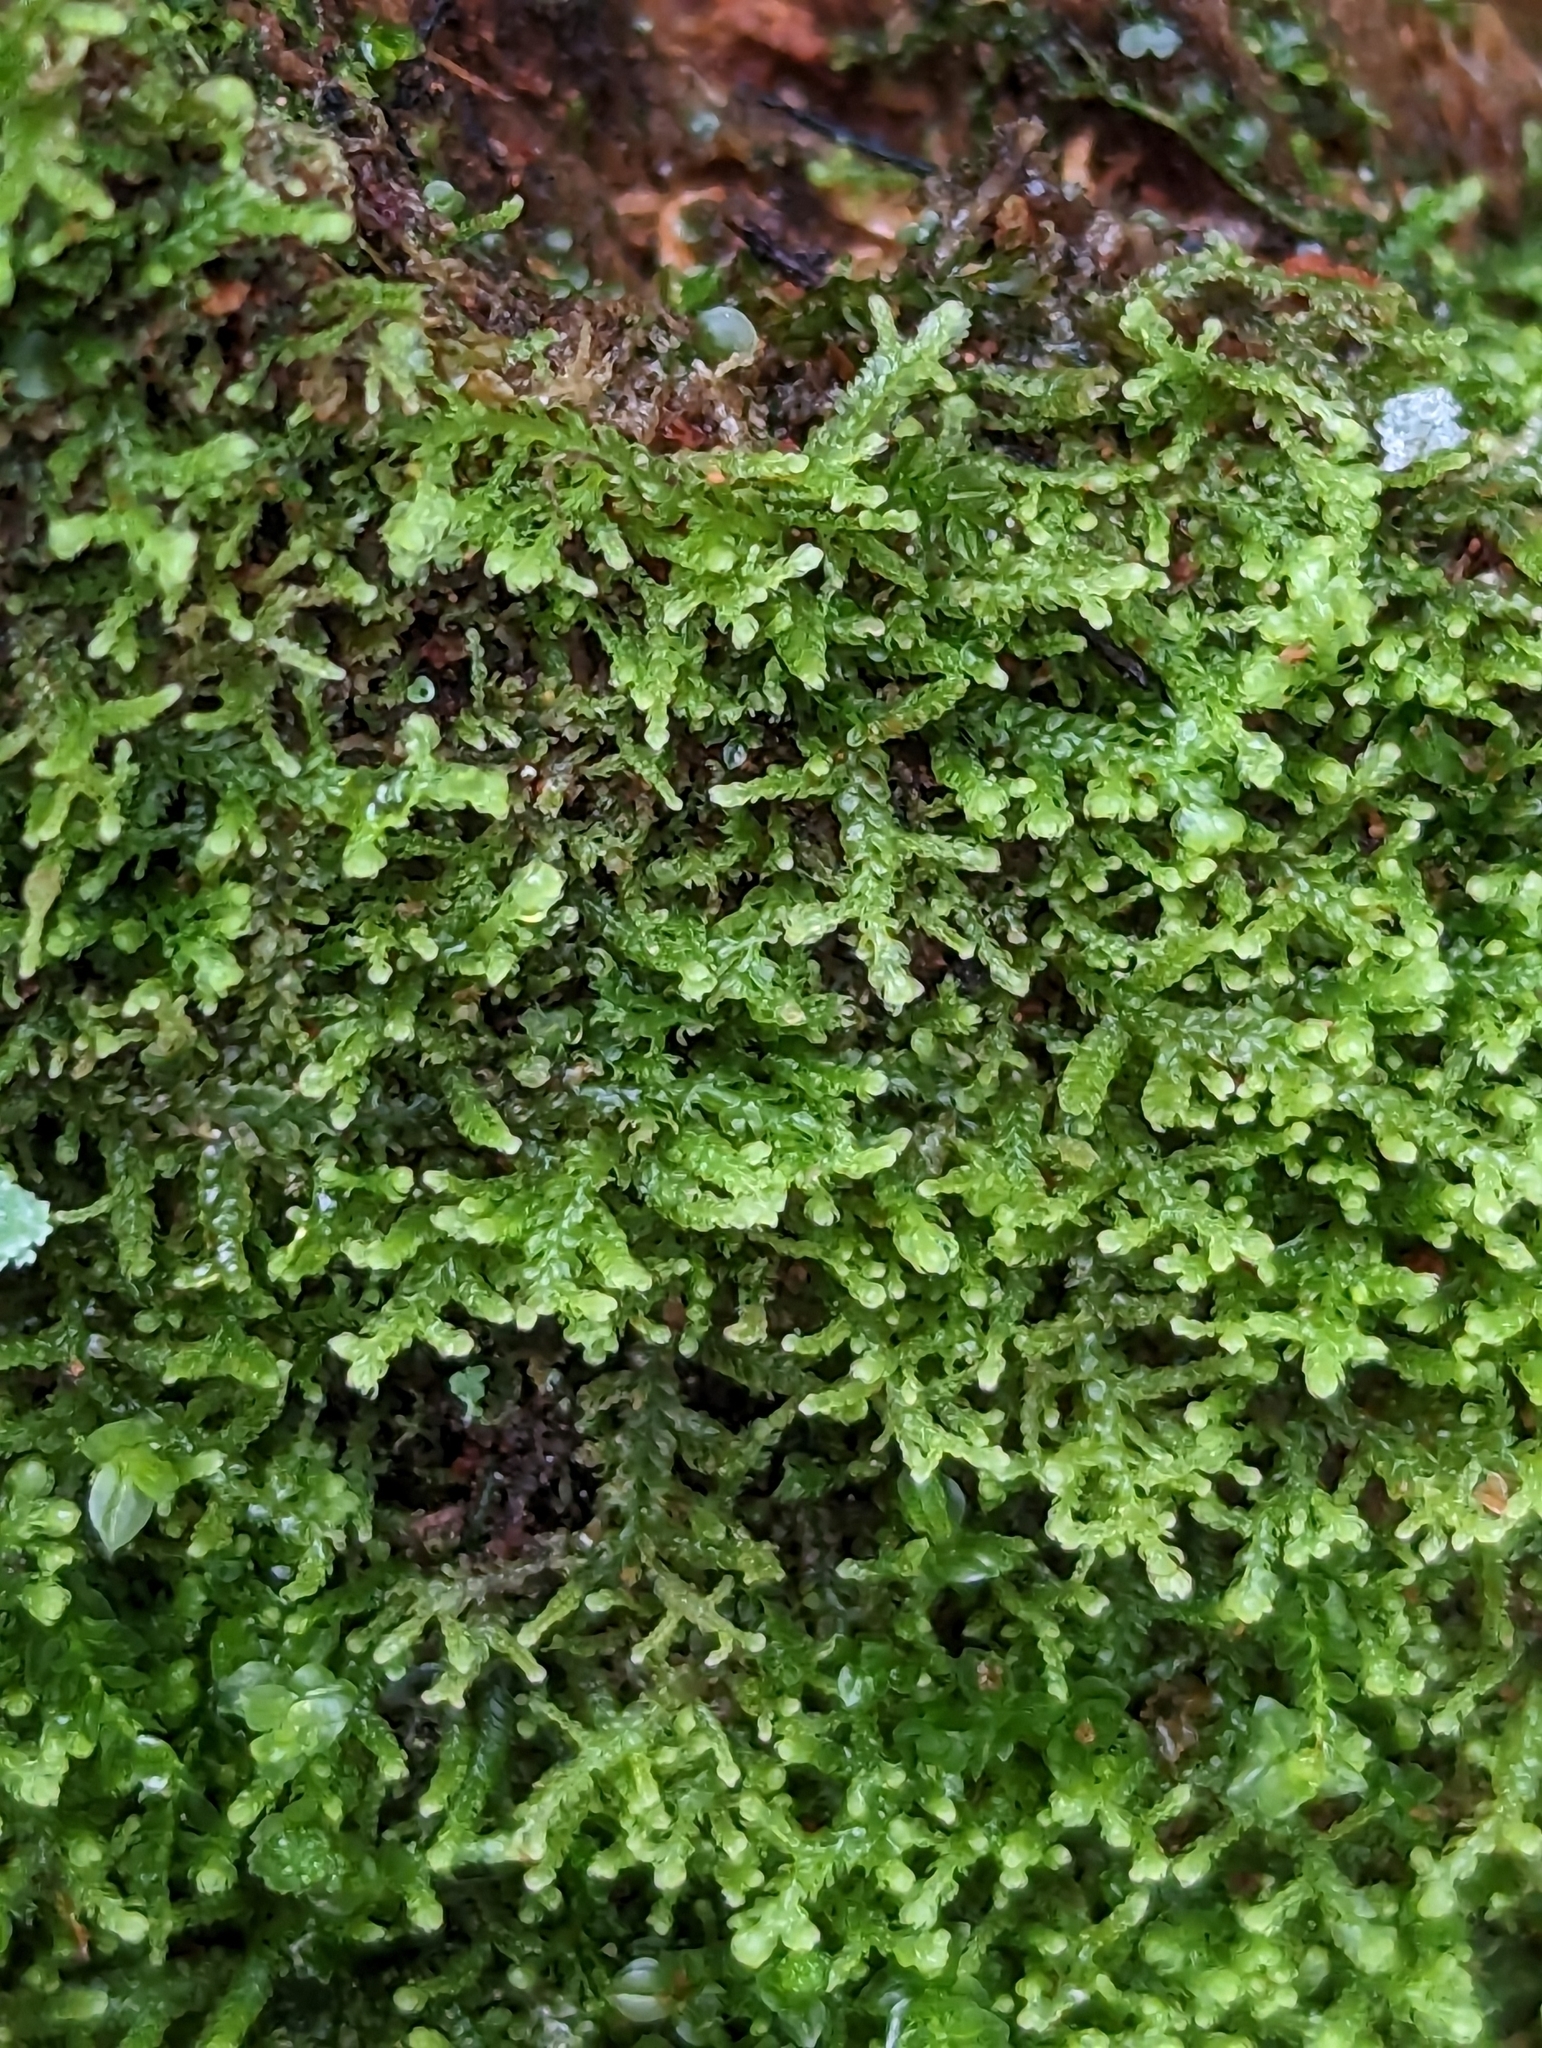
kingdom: Plantae
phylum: Marchantiophyta
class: Jungermanniopsida
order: Jungermanniales
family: Lepidoziaceae
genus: Lepidozia
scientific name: Lepidozia reptans
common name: Creeping fingerwort
